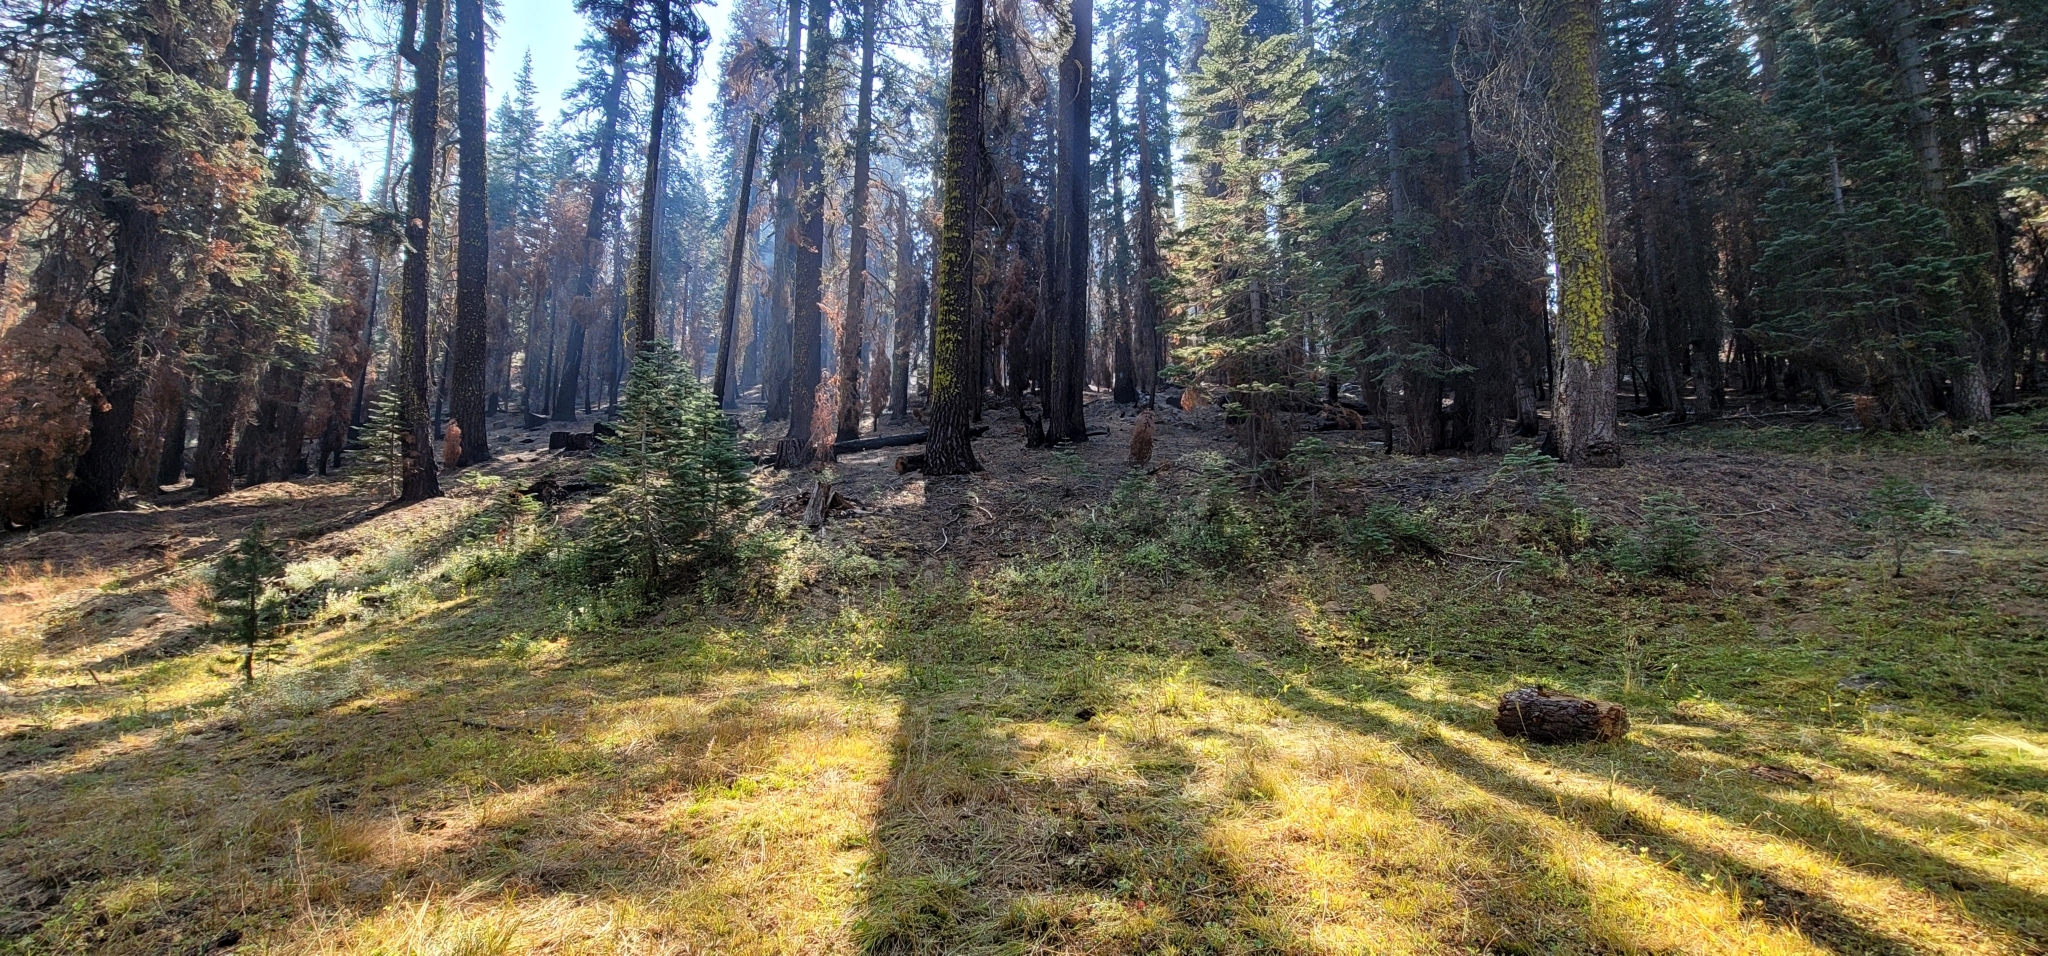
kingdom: Plantae
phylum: Tracheophyta
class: Magnoliopsida
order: Myrtales
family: Onagraceae
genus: Epilobium
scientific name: Epilobium howellii
